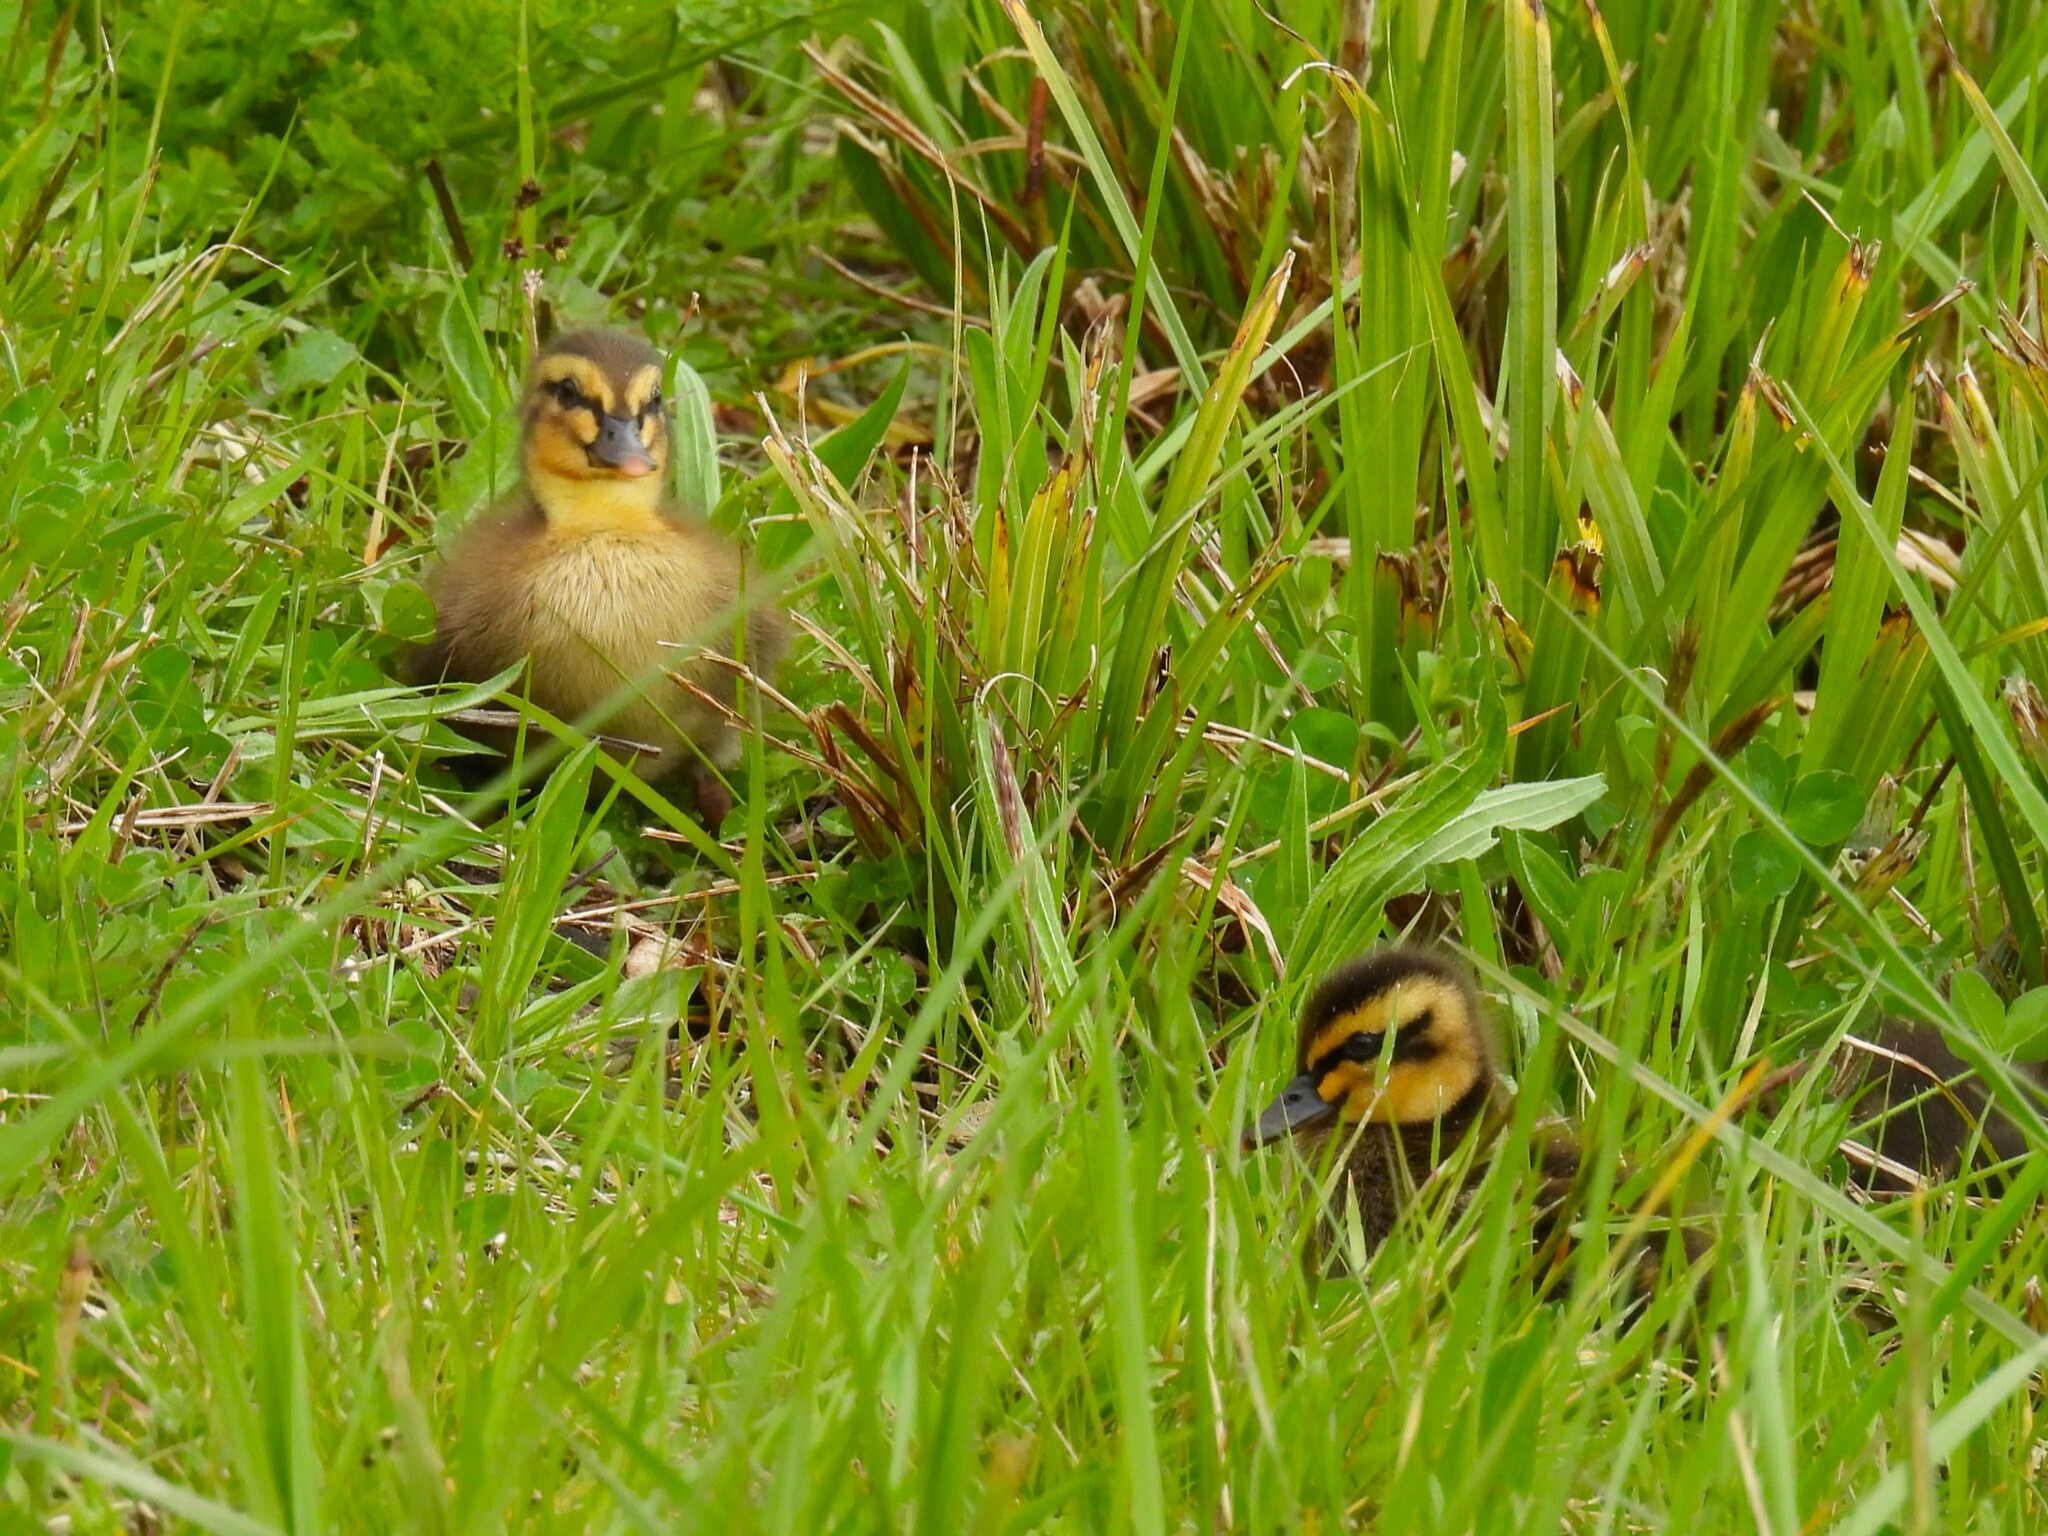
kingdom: Animalia
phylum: Chordata
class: Aves
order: Anseriformes
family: Anatidae
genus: Anas
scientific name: Anas platyrhynchos
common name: Mallard
